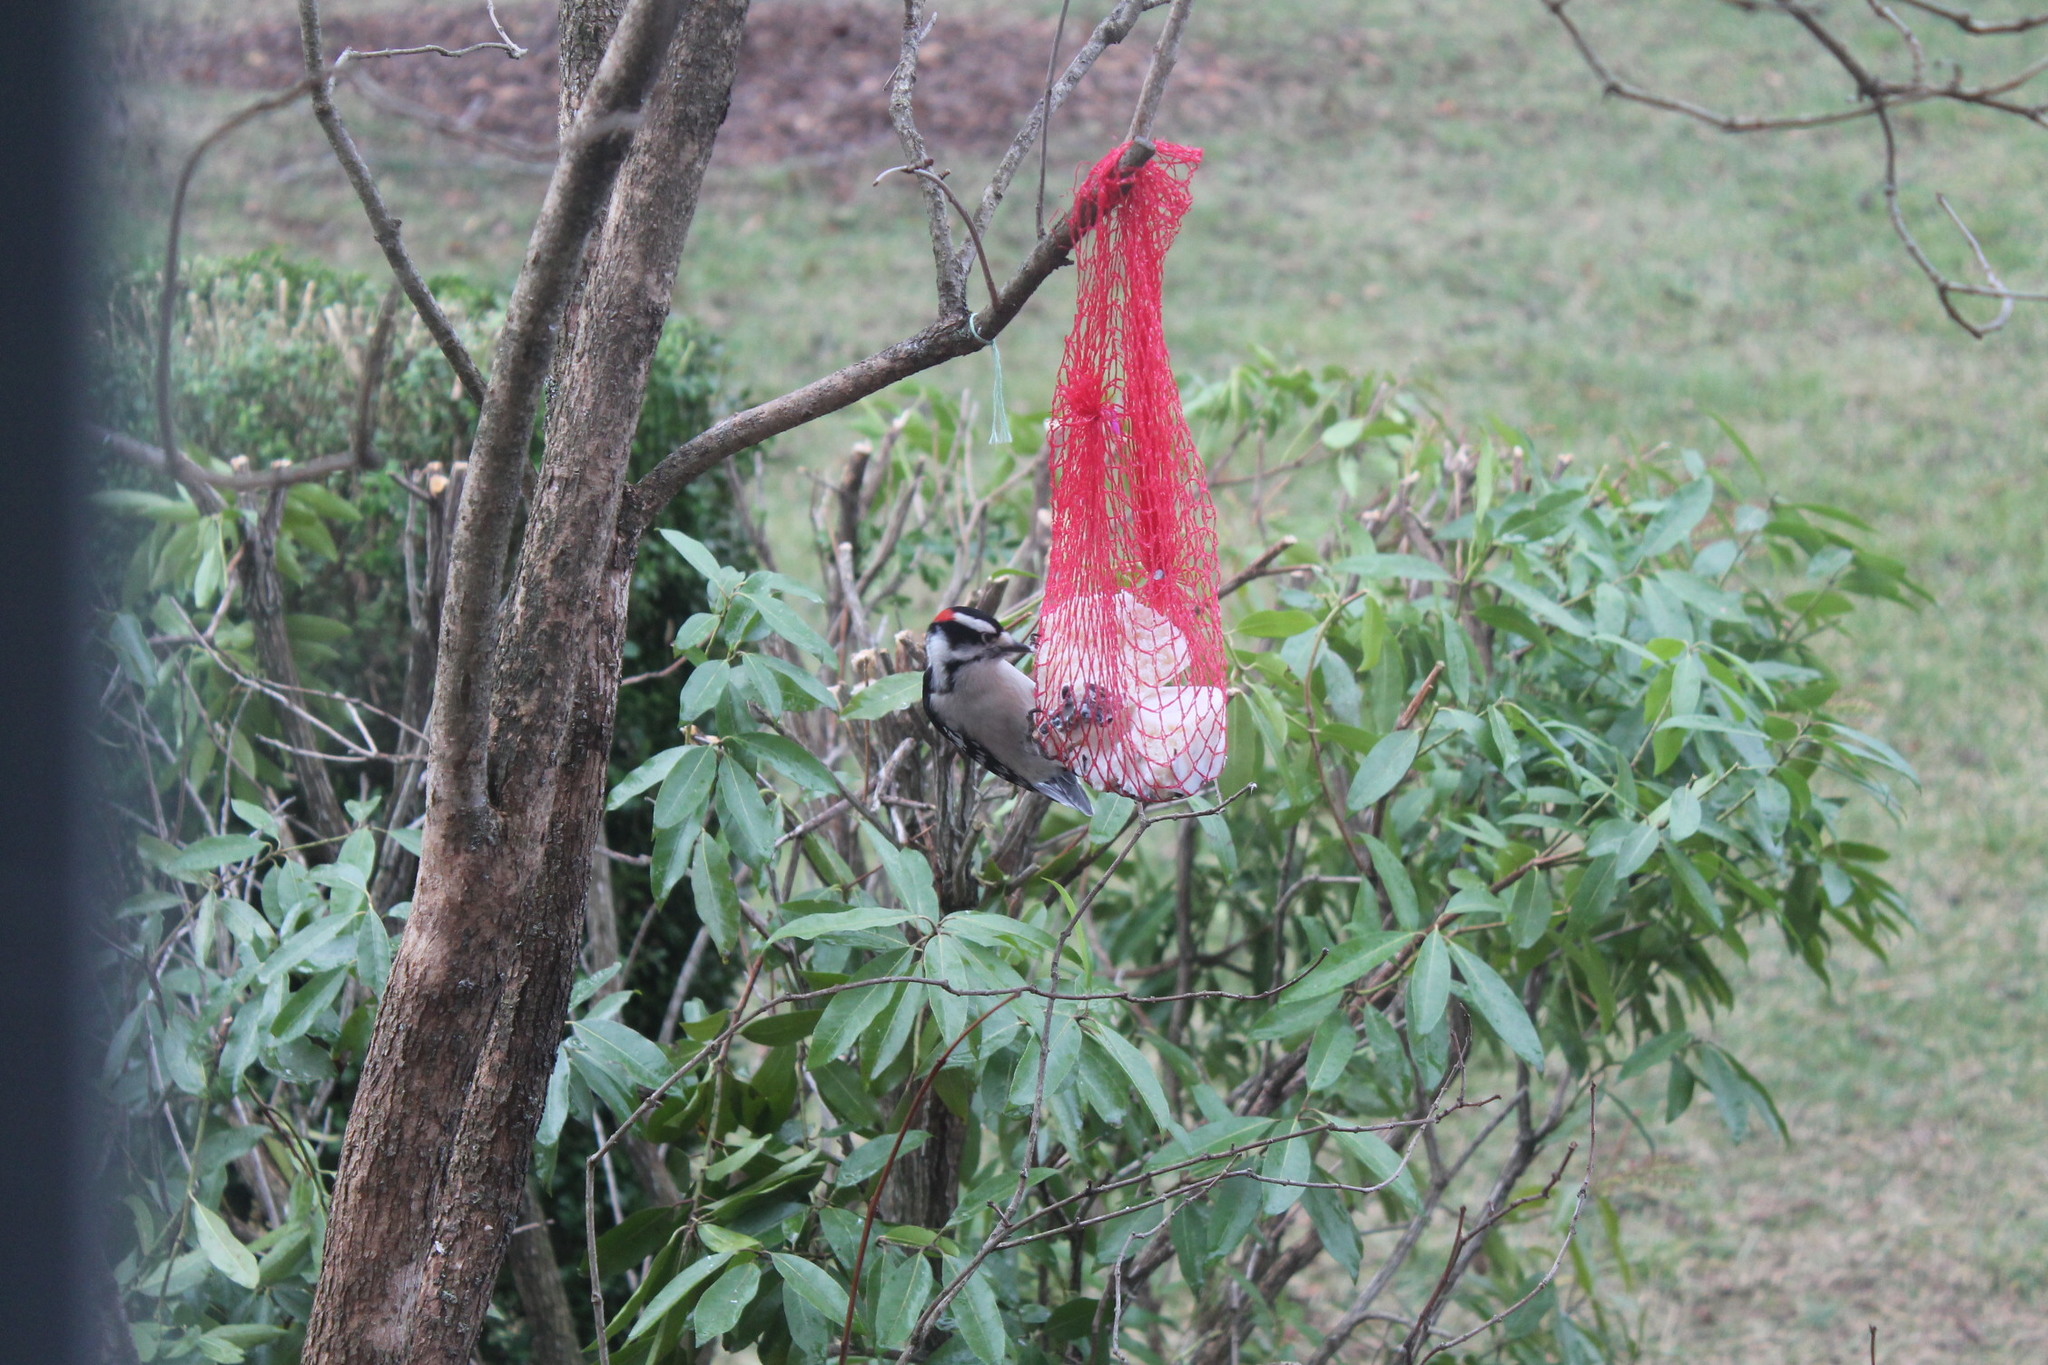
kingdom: Animalia
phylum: Chordata
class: Aves
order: Piciformes
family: Picidae
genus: Dryobates
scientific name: Dryobates pubescens
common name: Downy woodpecker
